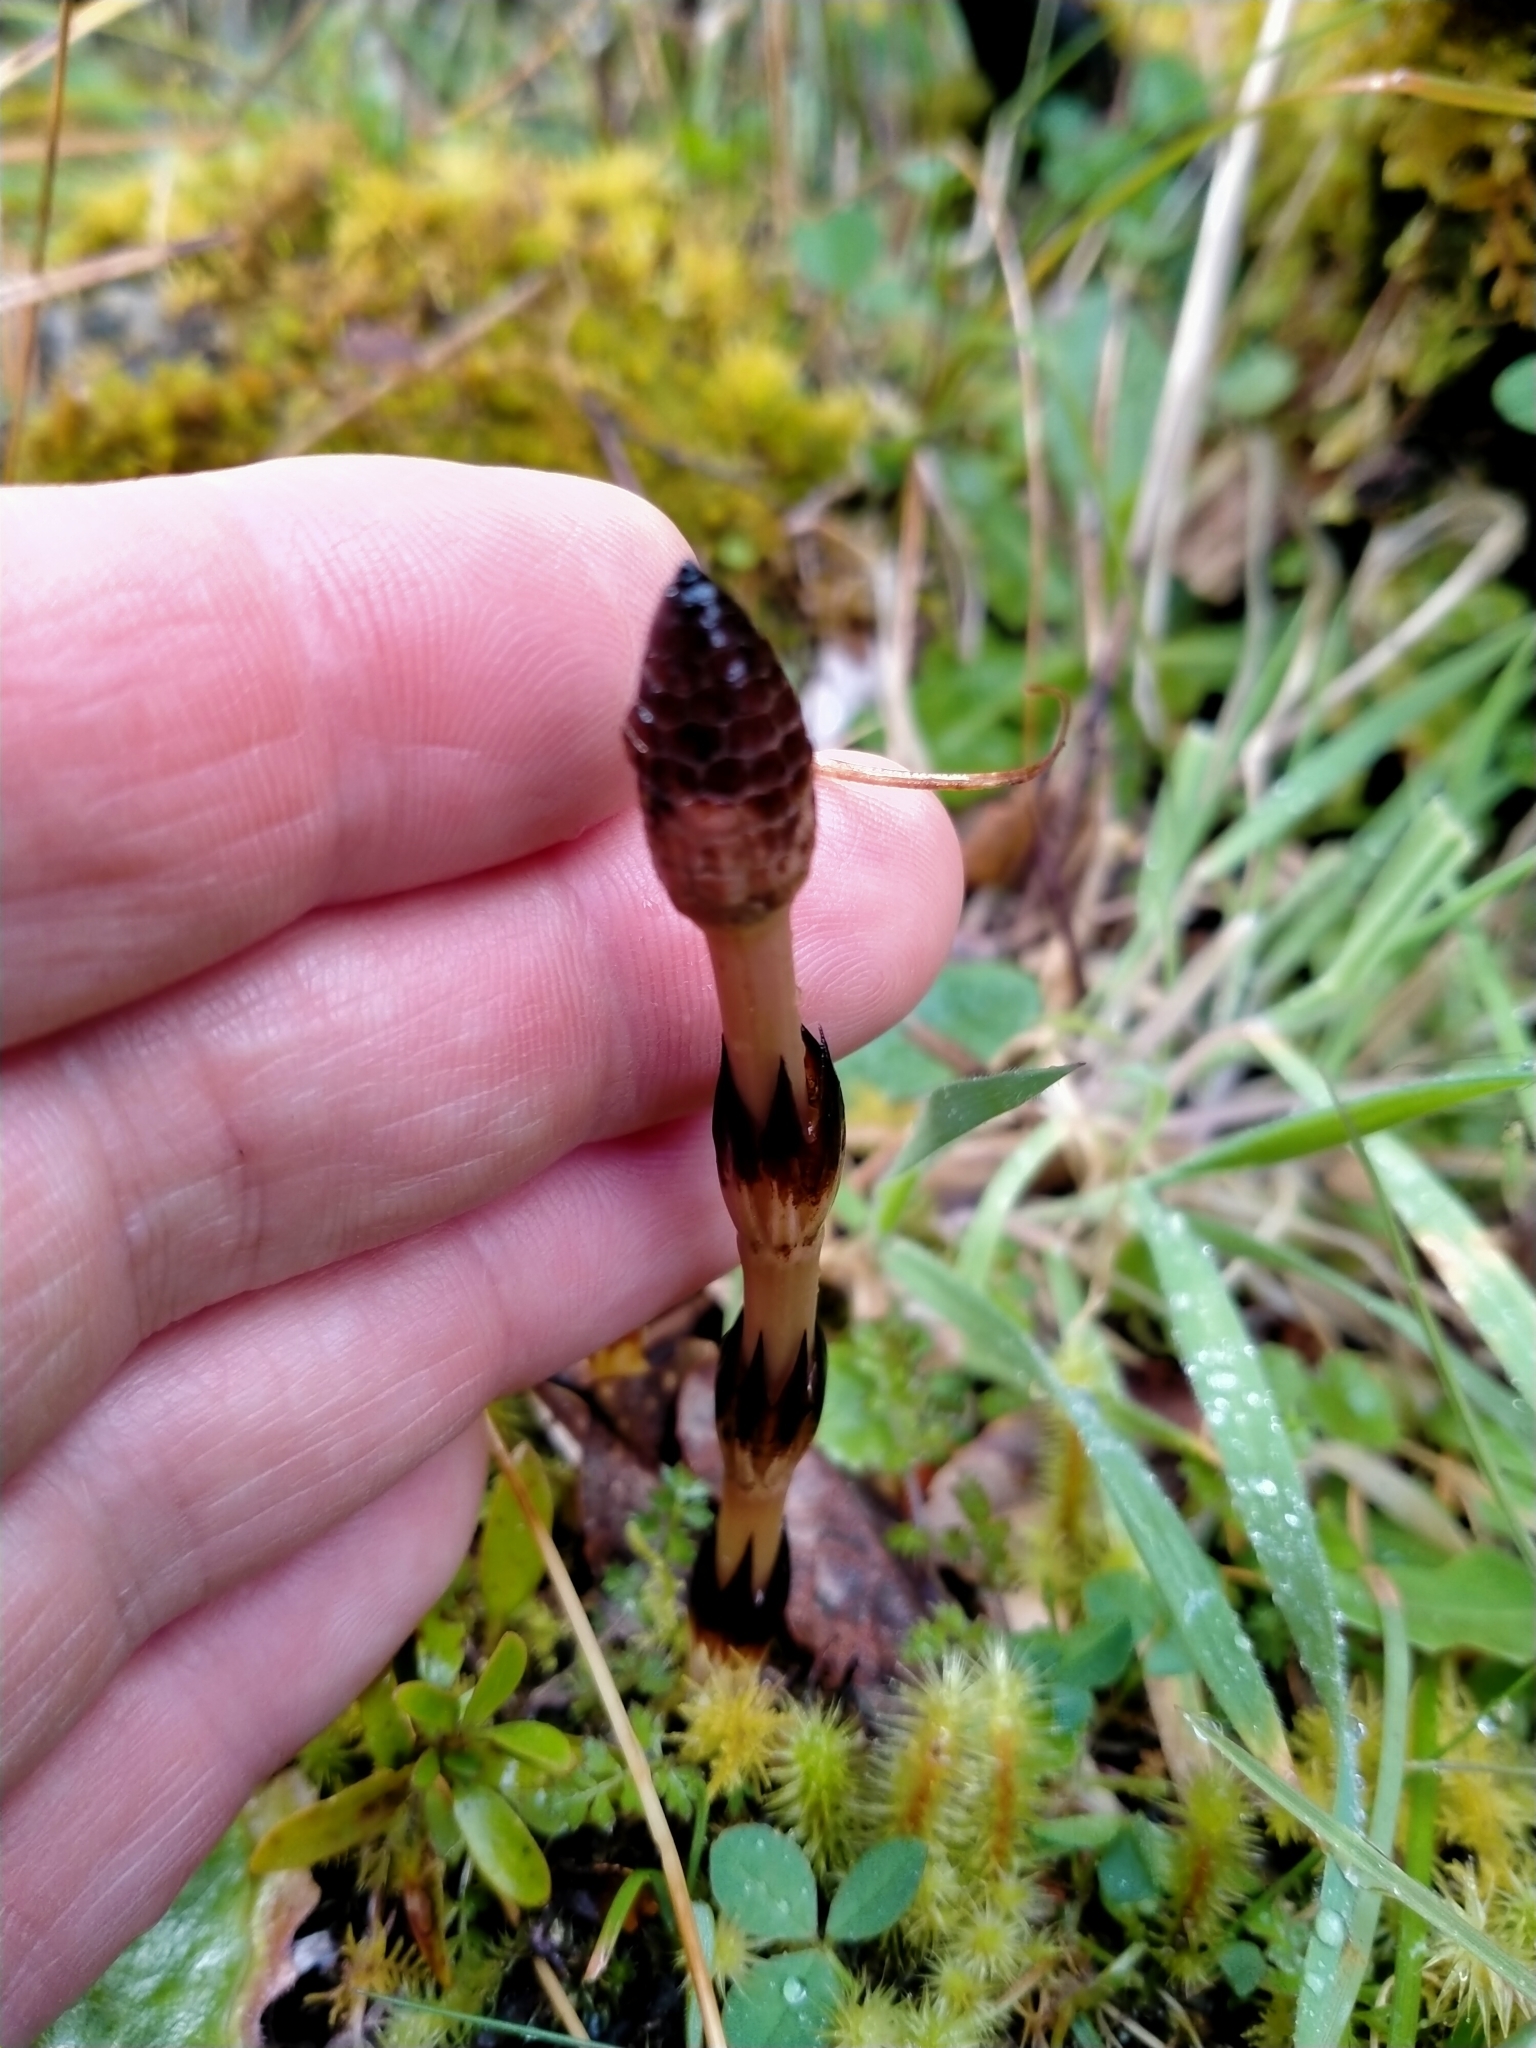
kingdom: Plantae
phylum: Tracheophyta
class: Polypodiopsida
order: Equisetales
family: Equisetaceae
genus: Equisetum
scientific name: Equisetum arvense
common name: Field horsetail
